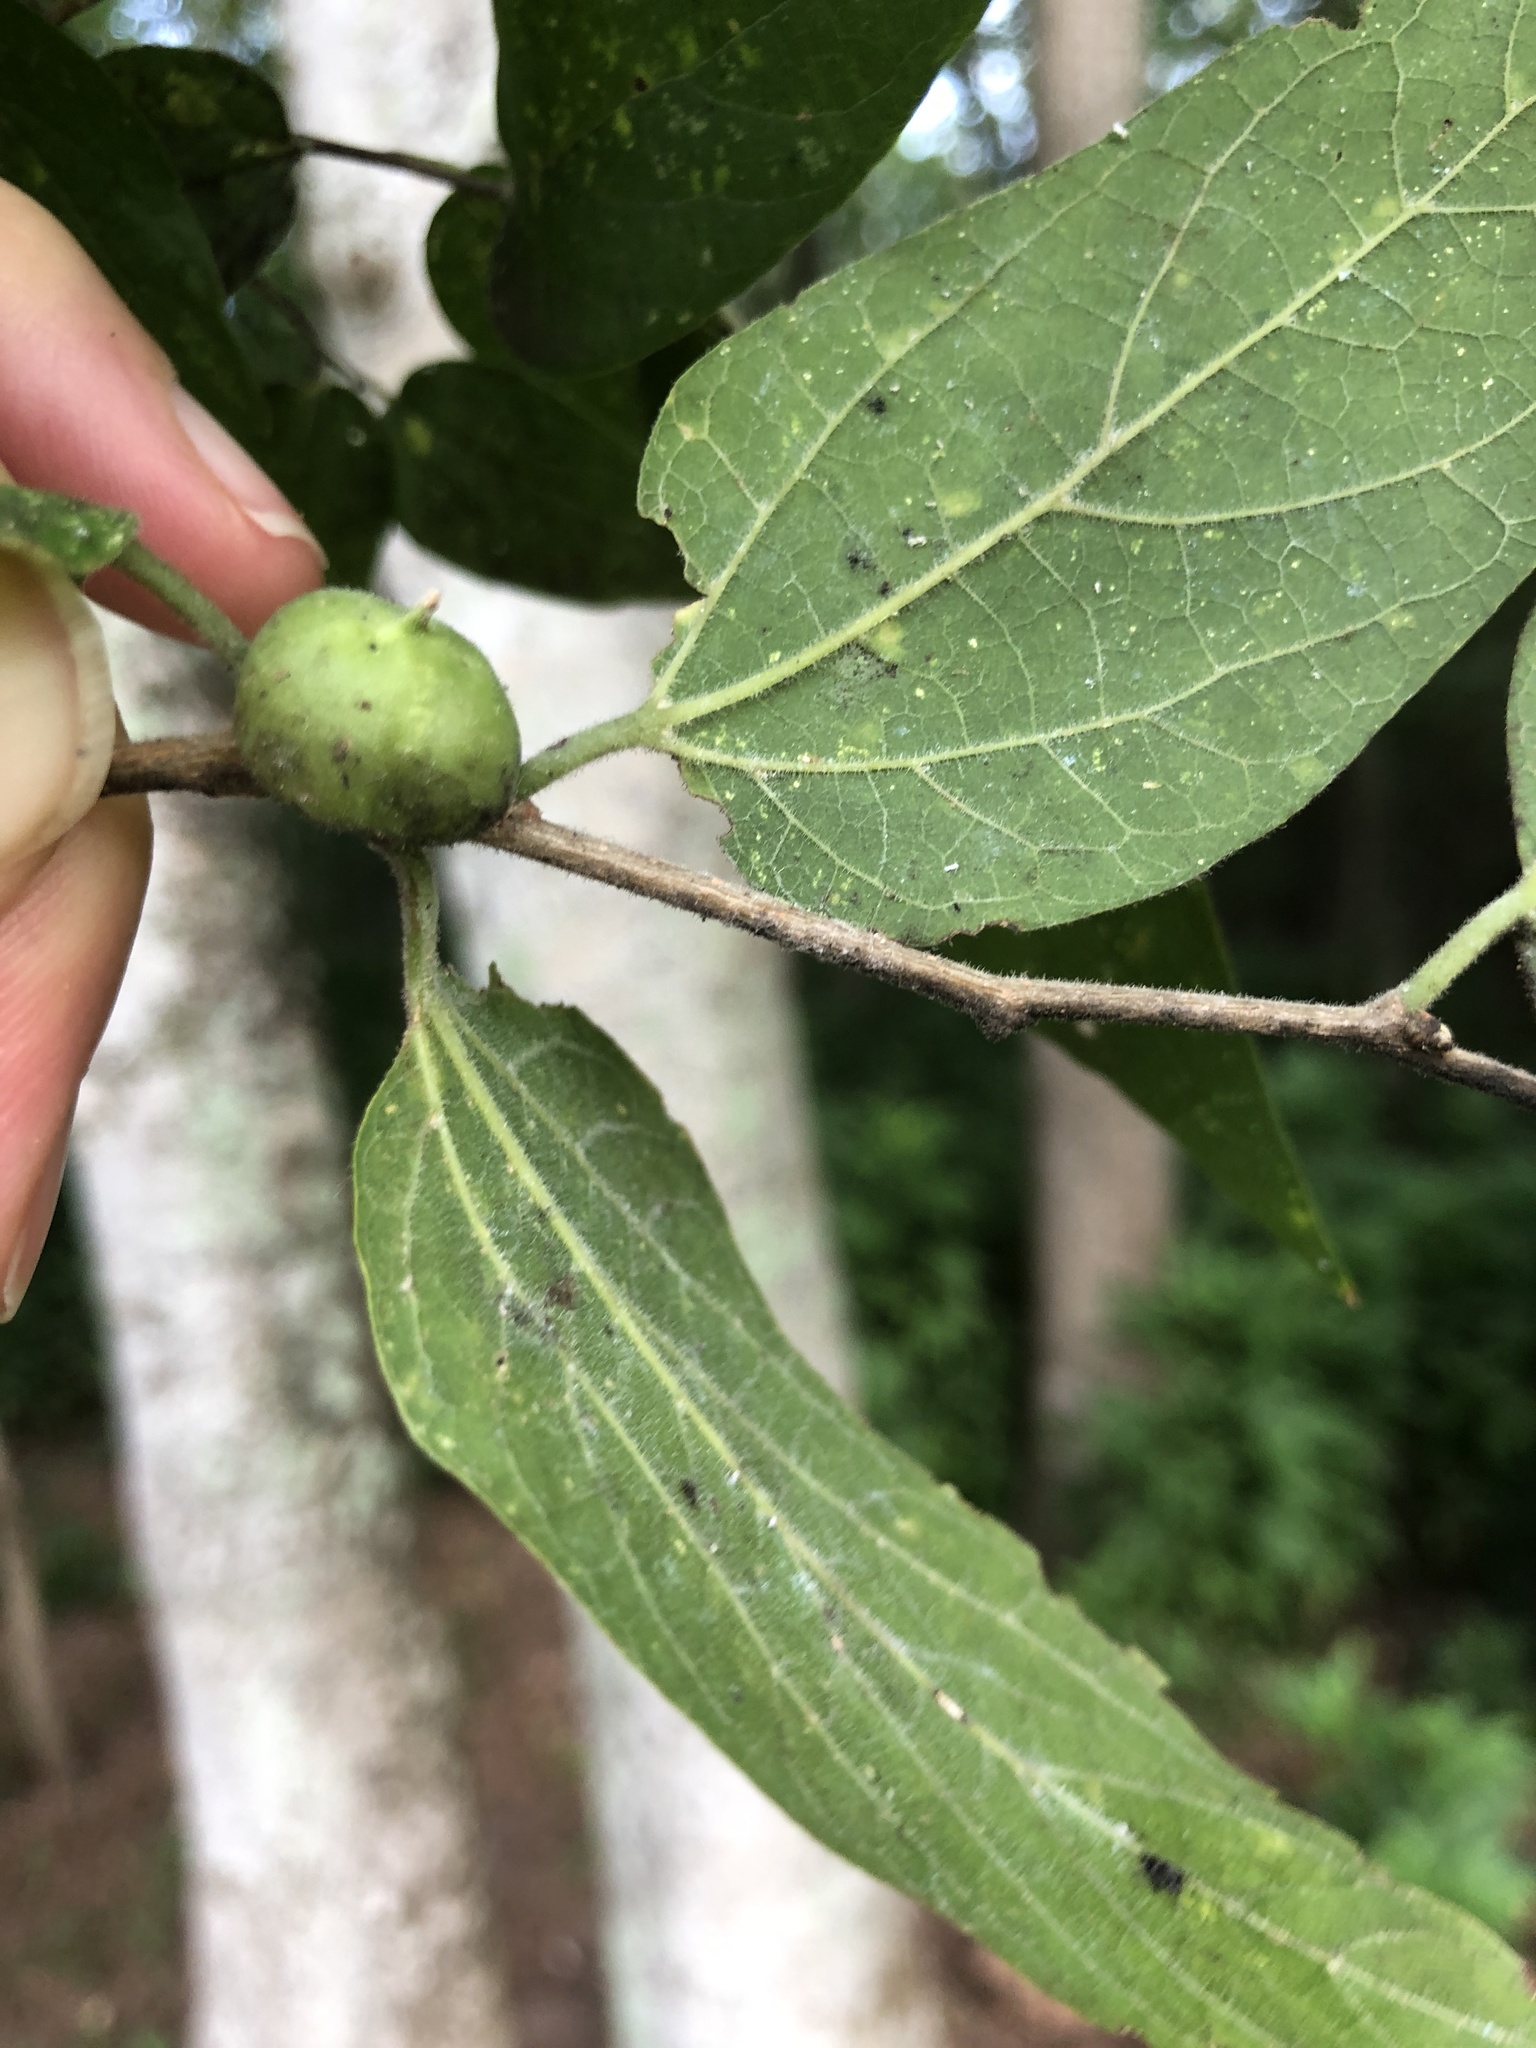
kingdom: Animalia
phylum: Arthropoda
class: Insecta
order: Diptera
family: Cecidomyiidae
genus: Celticecis
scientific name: Celticecis connata
